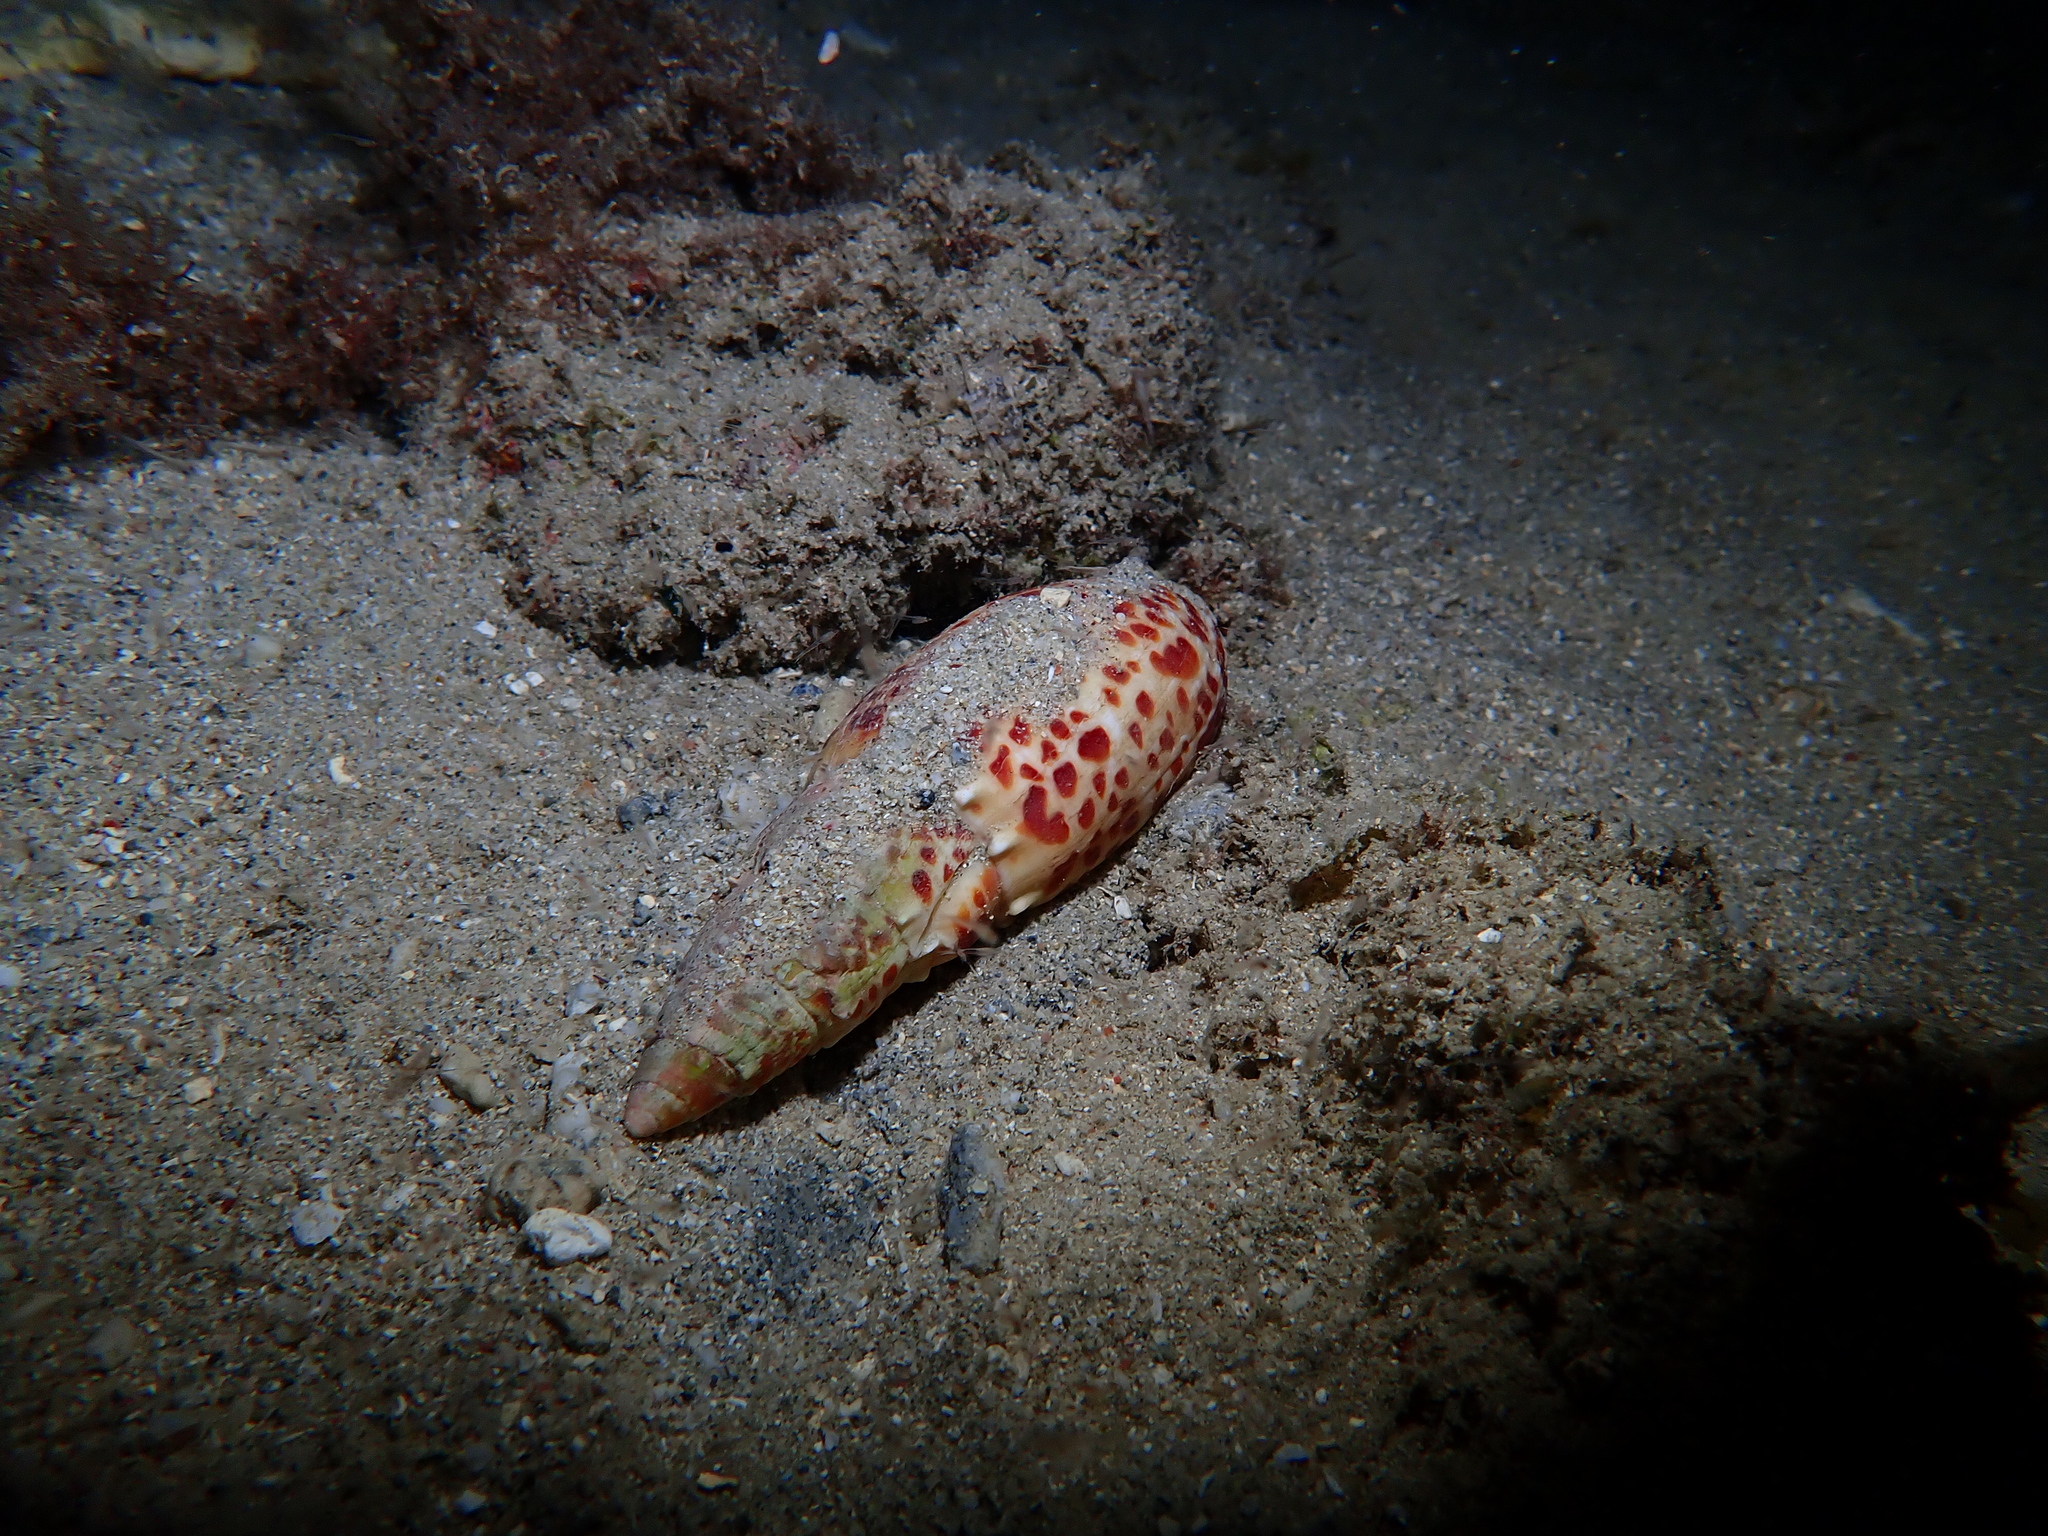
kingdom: Animalia
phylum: Mollusca
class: Gastropoda
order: Neogastropoda
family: Mitridae
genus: Mitra
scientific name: Mitra papalis
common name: Papal miter
